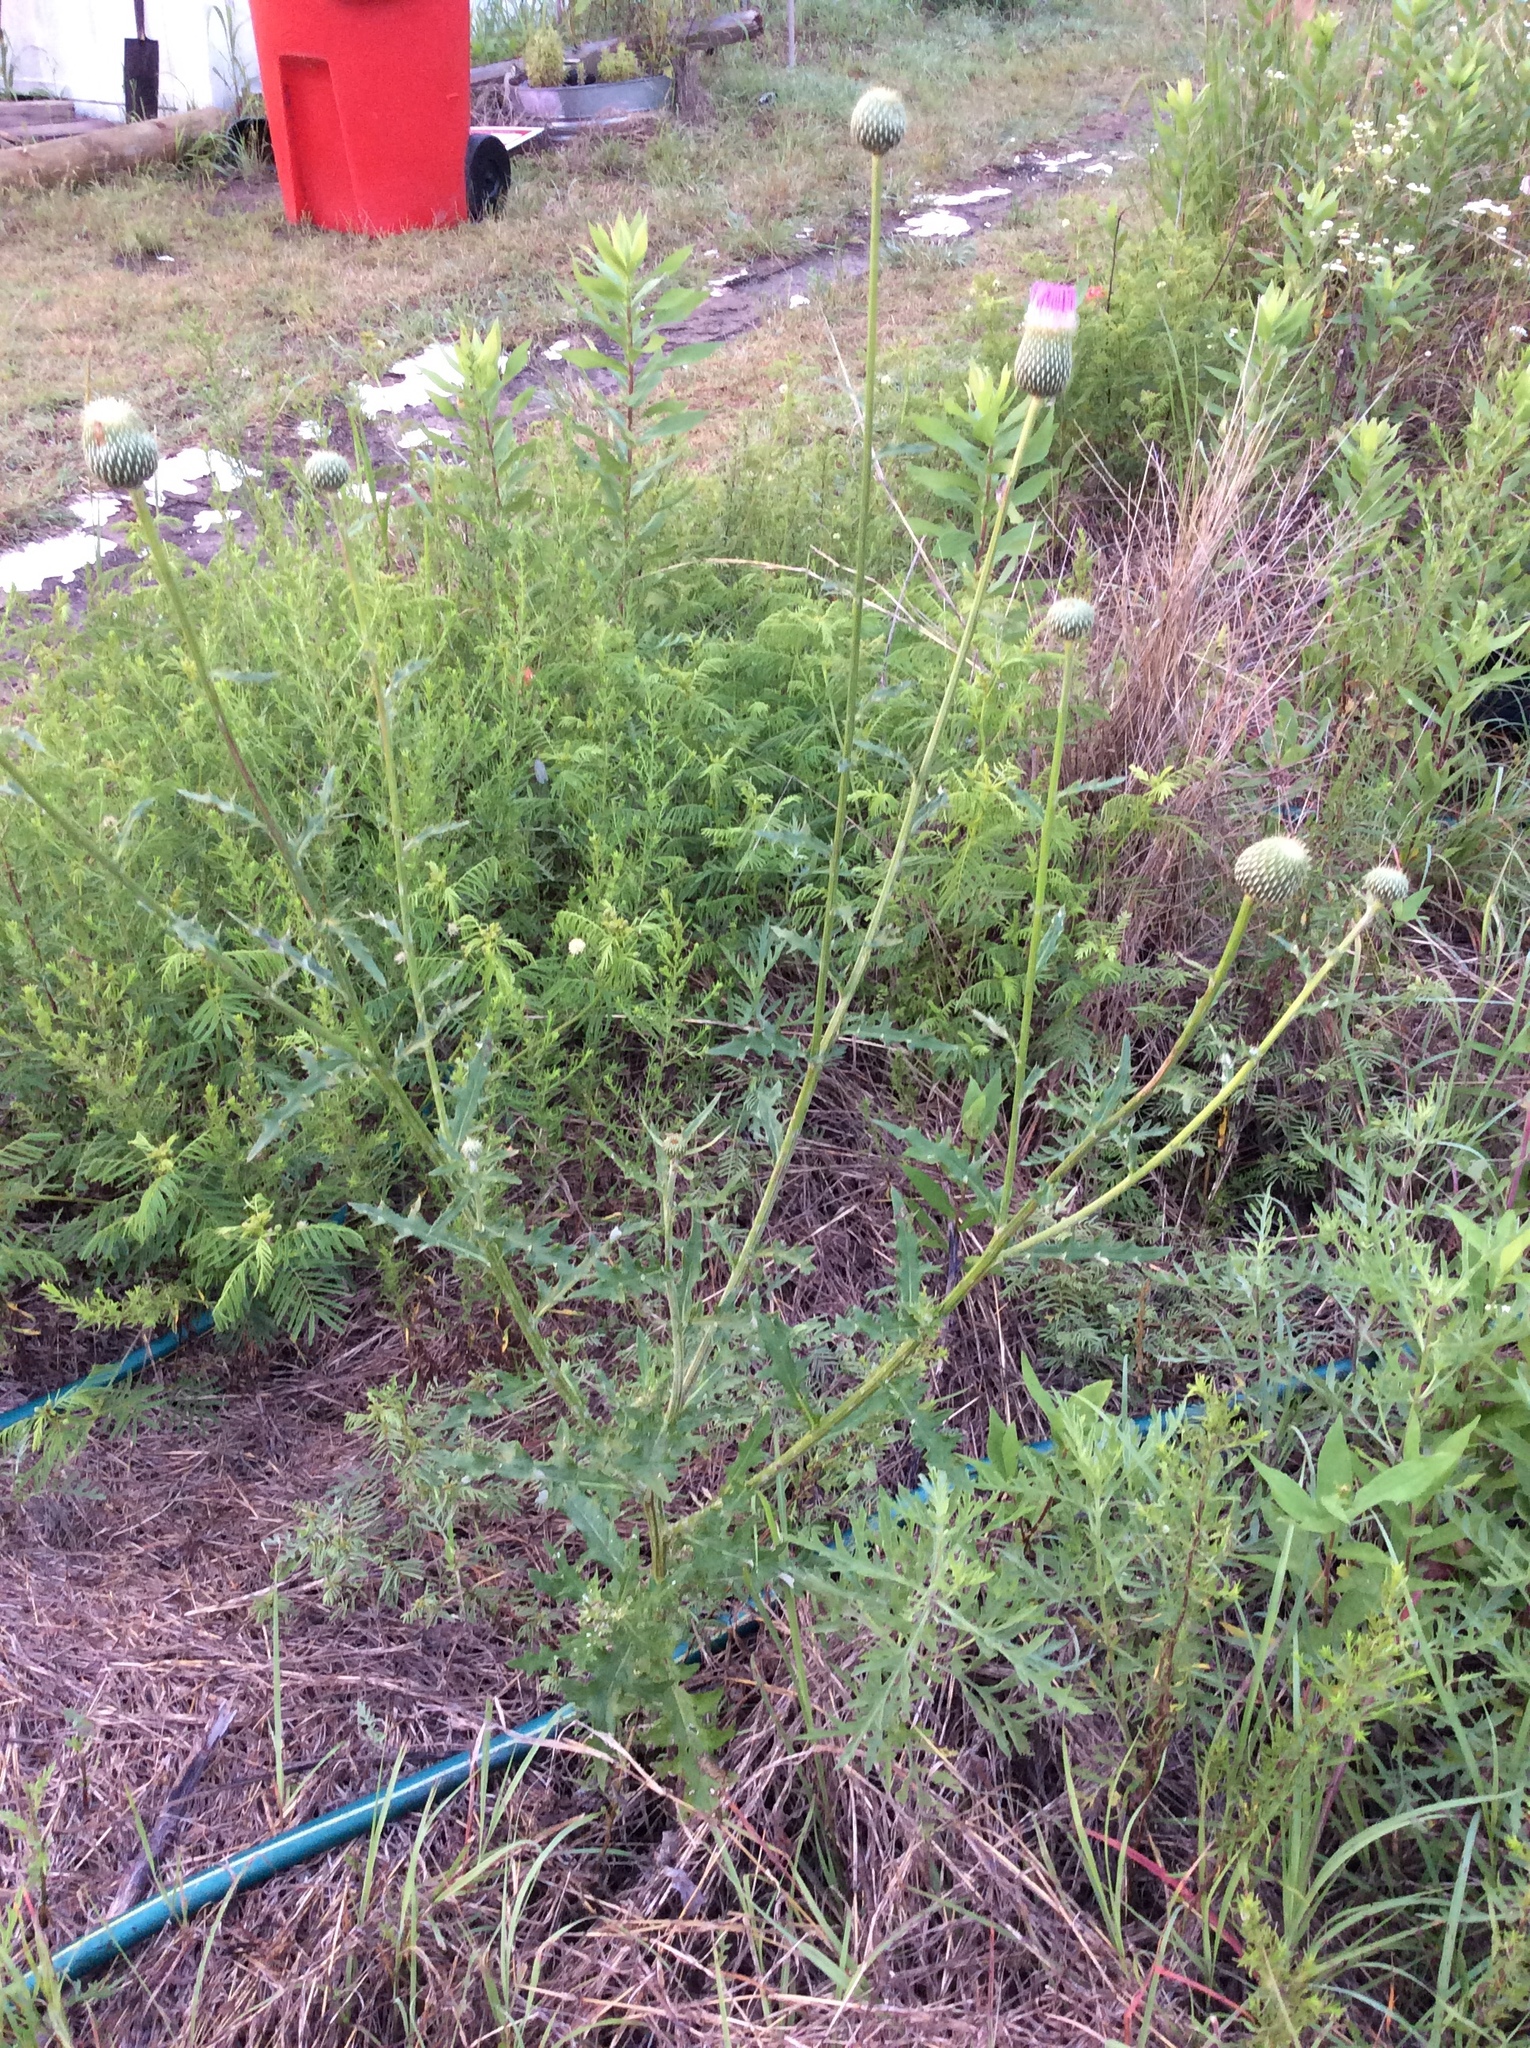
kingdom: Plantae
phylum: Tracheophyta
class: Magnoliopsida
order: Asterales
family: Asteraceae
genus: Cirsium
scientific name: Cirsium texanum
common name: Texas purple thistle
